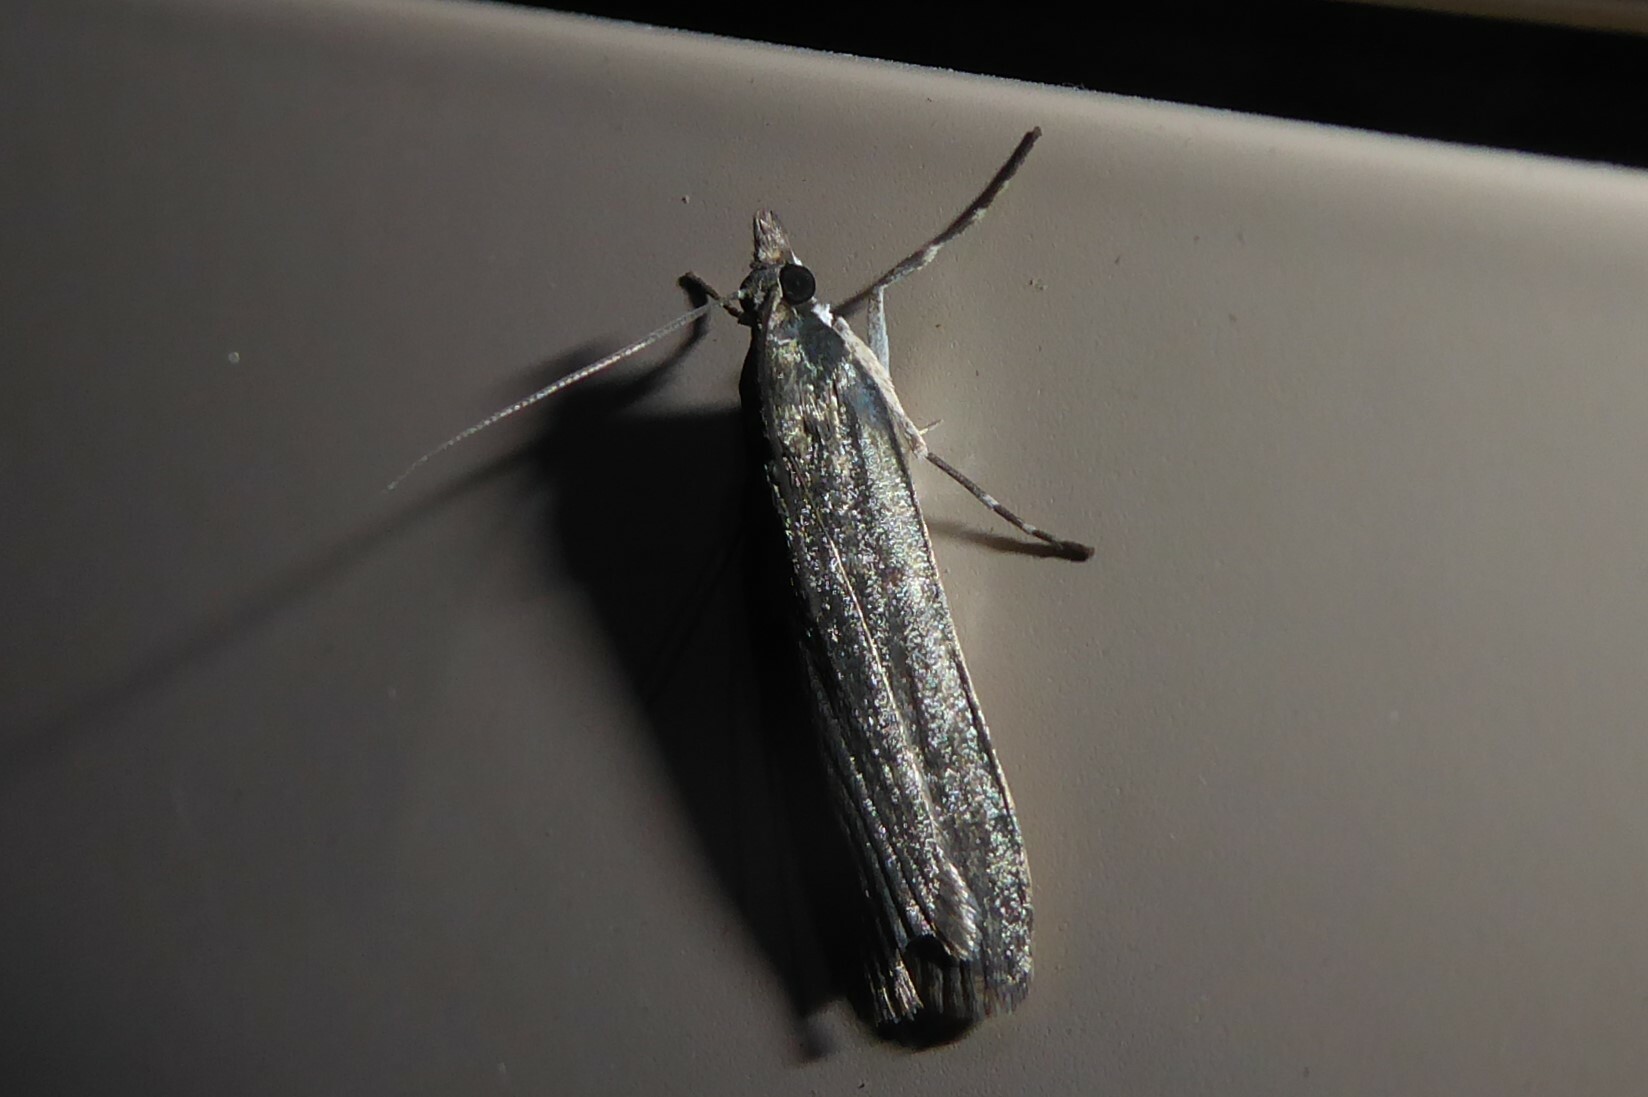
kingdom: Animalia
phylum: Arthropoda
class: Insecta
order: Lepidoptera
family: Crambidae
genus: Eudonia
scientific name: Eudonia cataxesta
